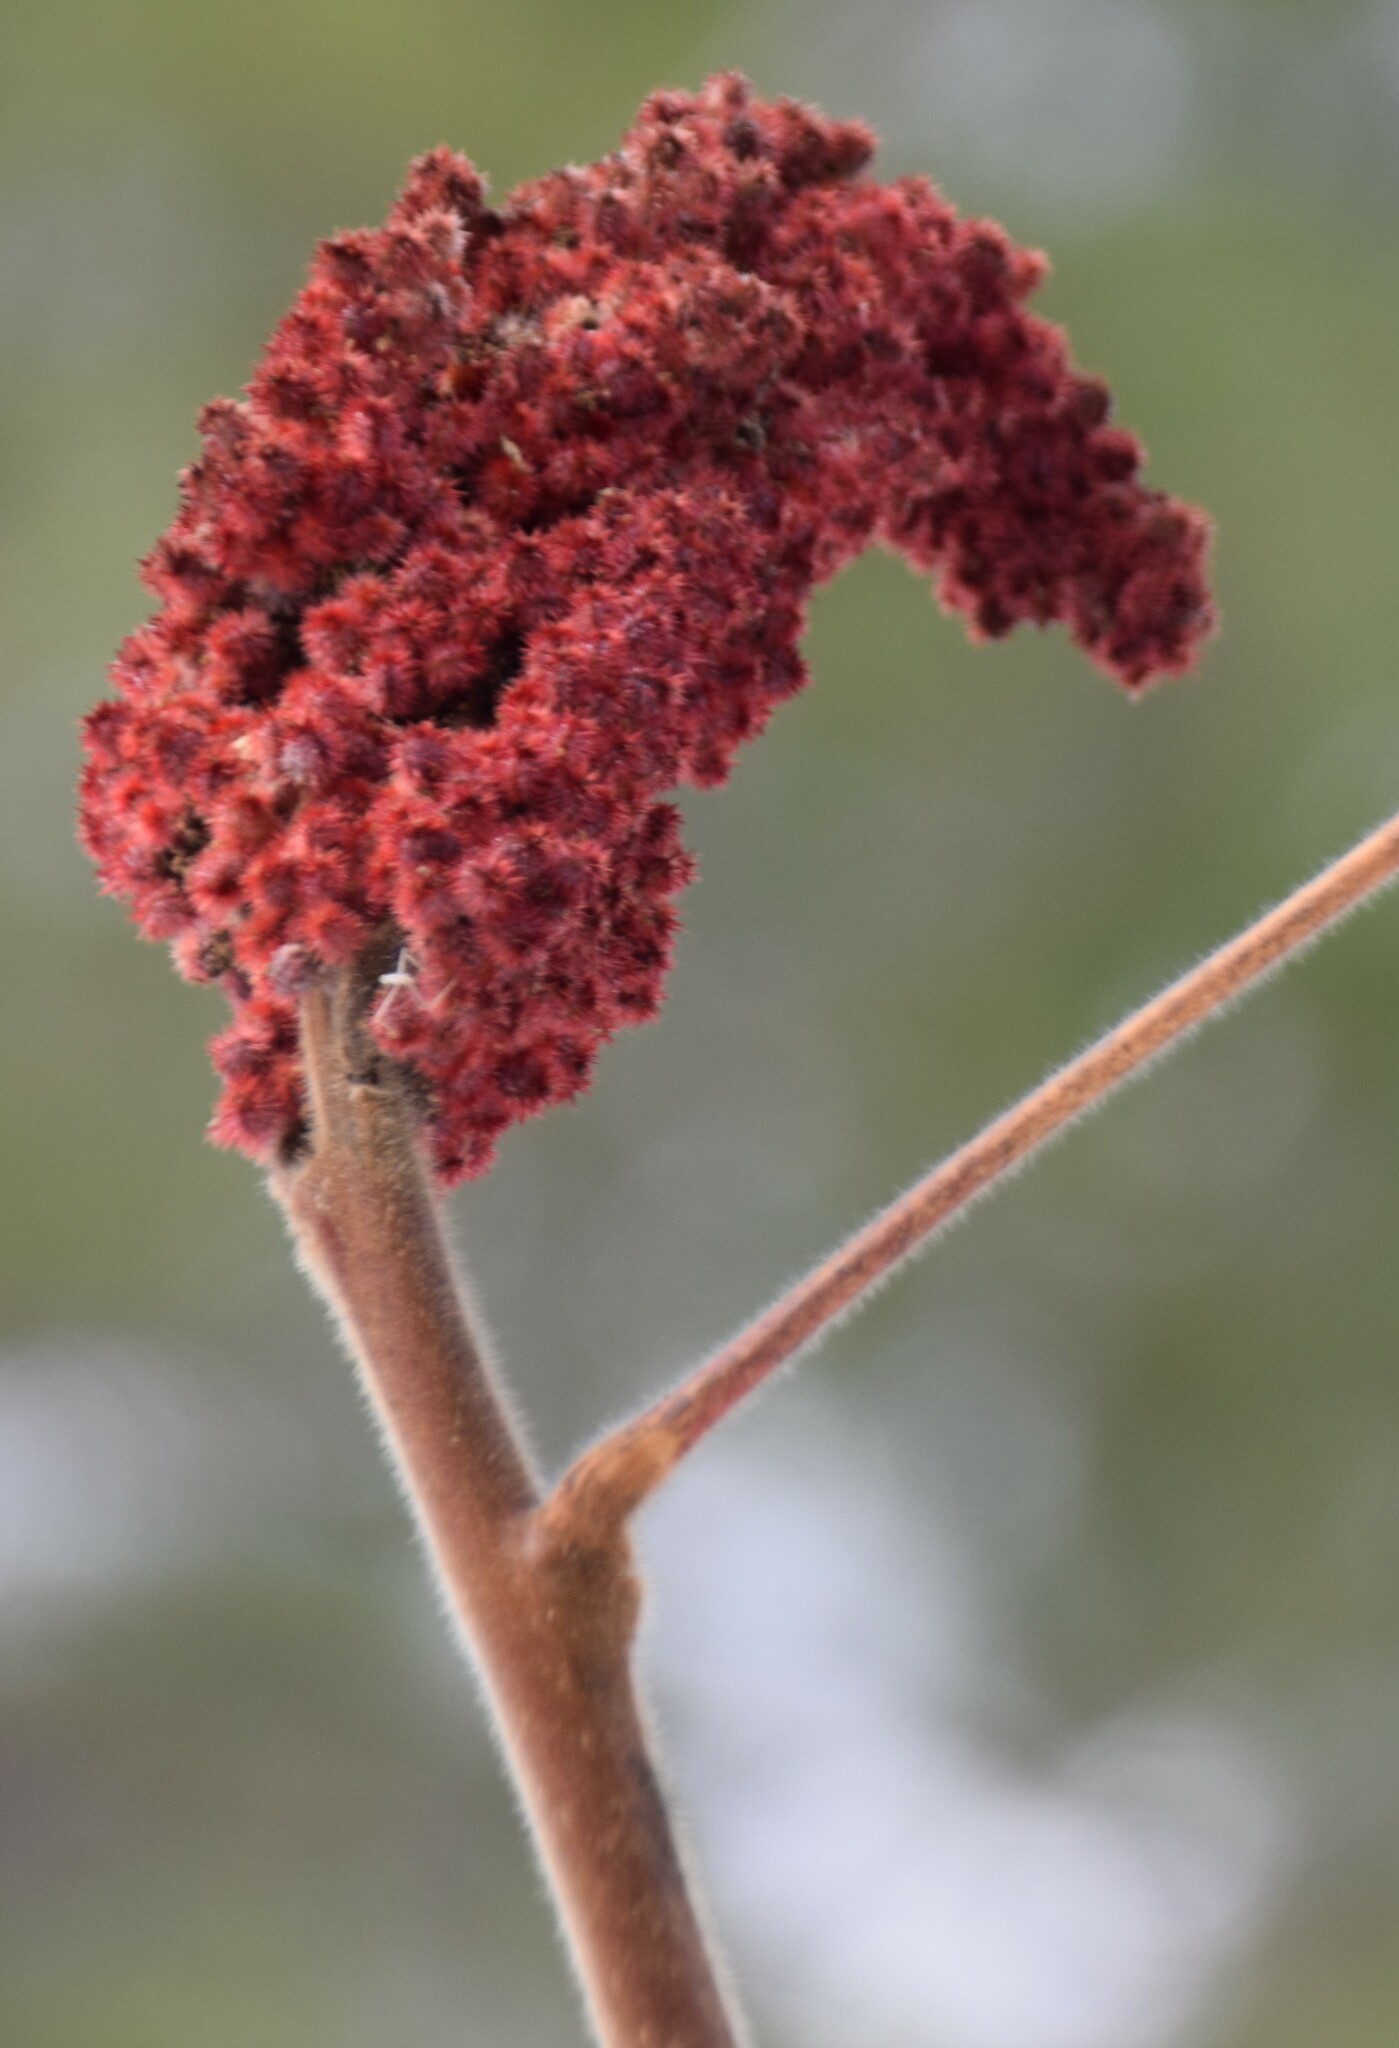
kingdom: Plantae
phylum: Tracheophyta
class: Magnoliopsida
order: Sapindales
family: Anacardiaceae
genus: Rhus
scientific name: Rhus typhina
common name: Staghorn sumac
